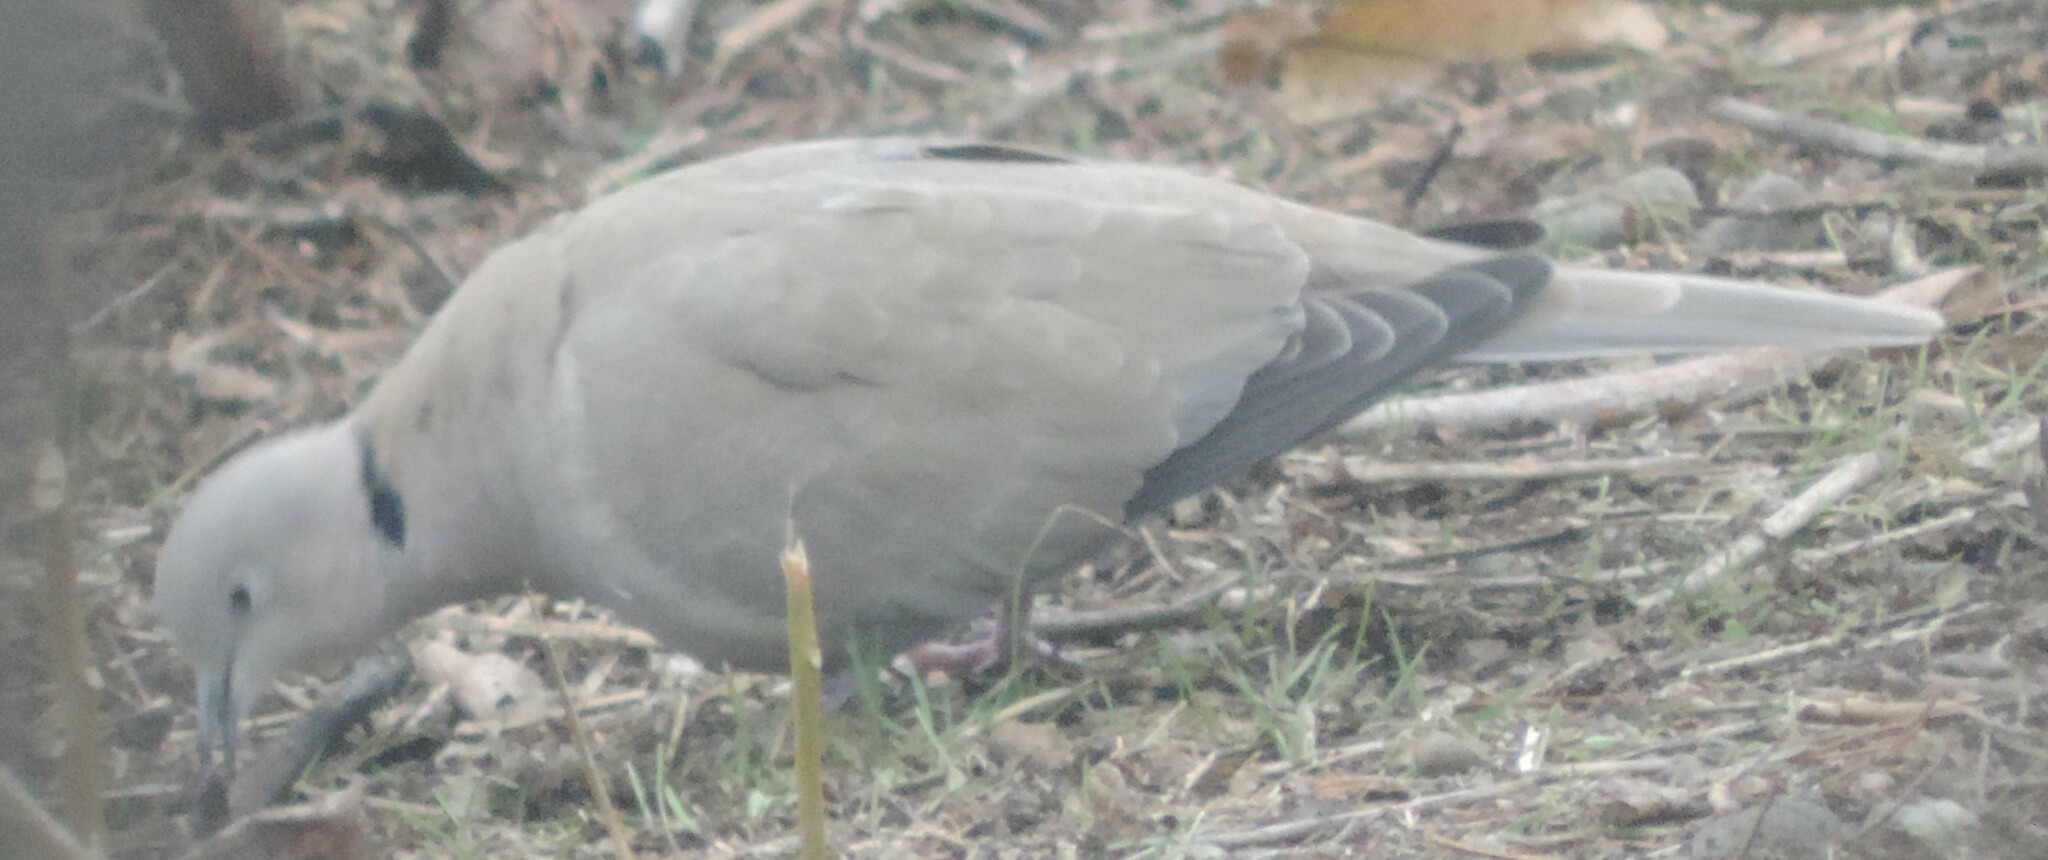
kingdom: Animalia
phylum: Chordata
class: Aves
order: Columbiformes
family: Columbidae
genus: Streptopelia
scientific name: Streptopelia decaocto
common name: Eurasian collared dove
